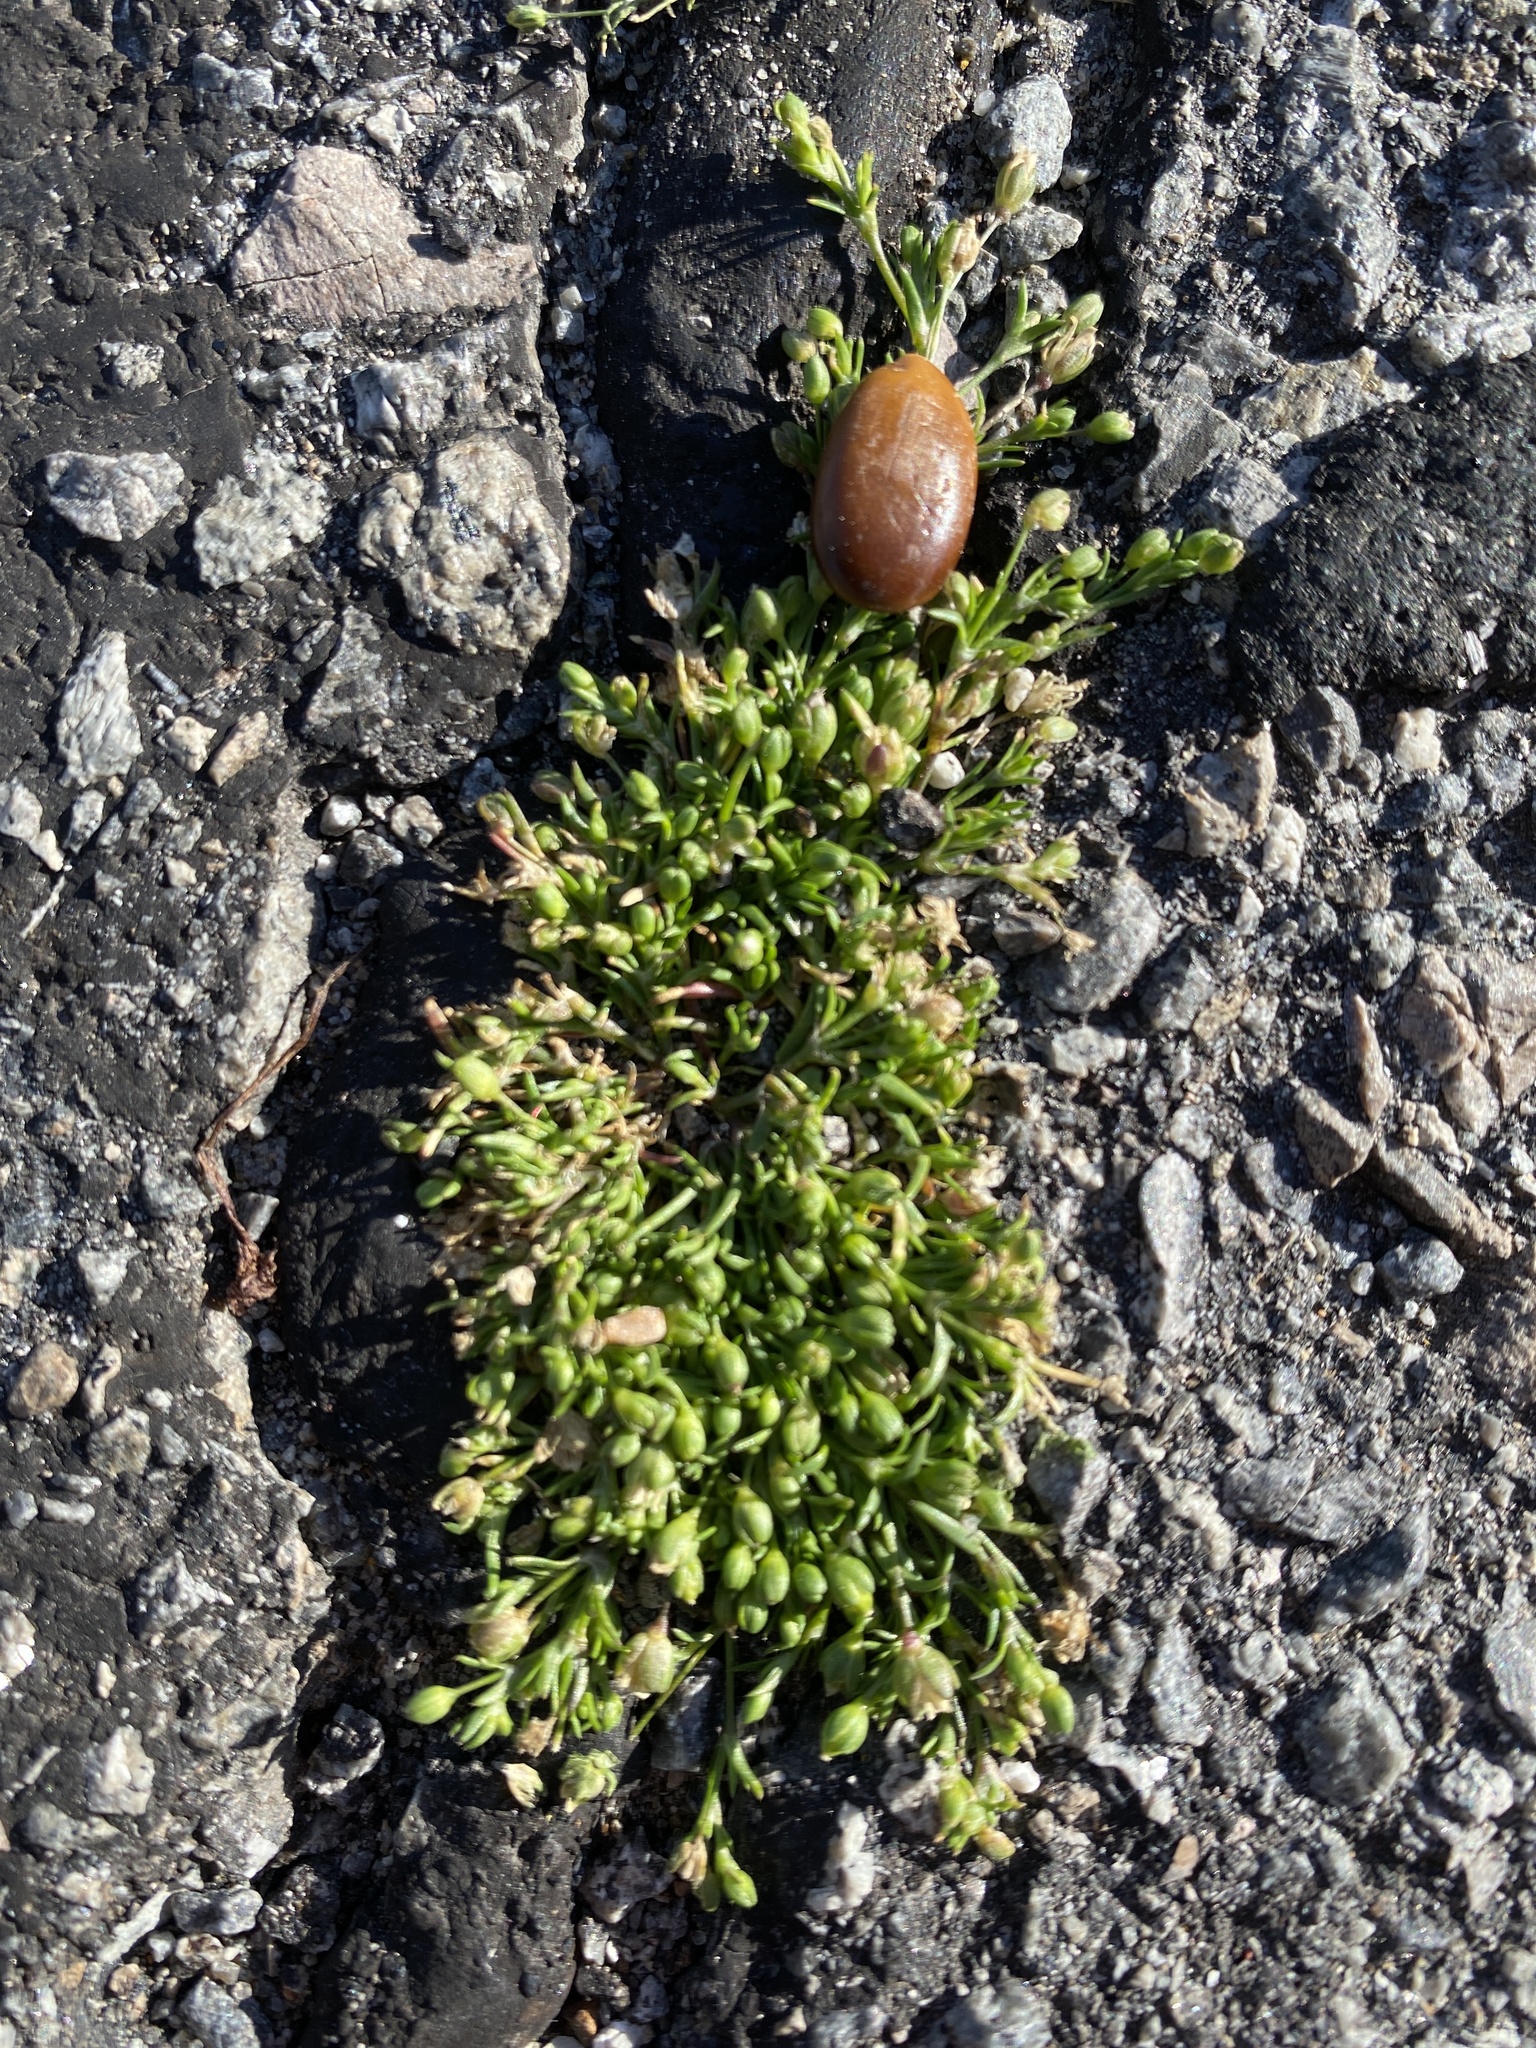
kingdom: Plantae
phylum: Tracheophyta
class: Magnoliopsida
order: Caryophyllales
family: Caryophyllaceae
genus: Sagina
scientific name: Sagina decumbens
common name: Decumbent pearlwort
